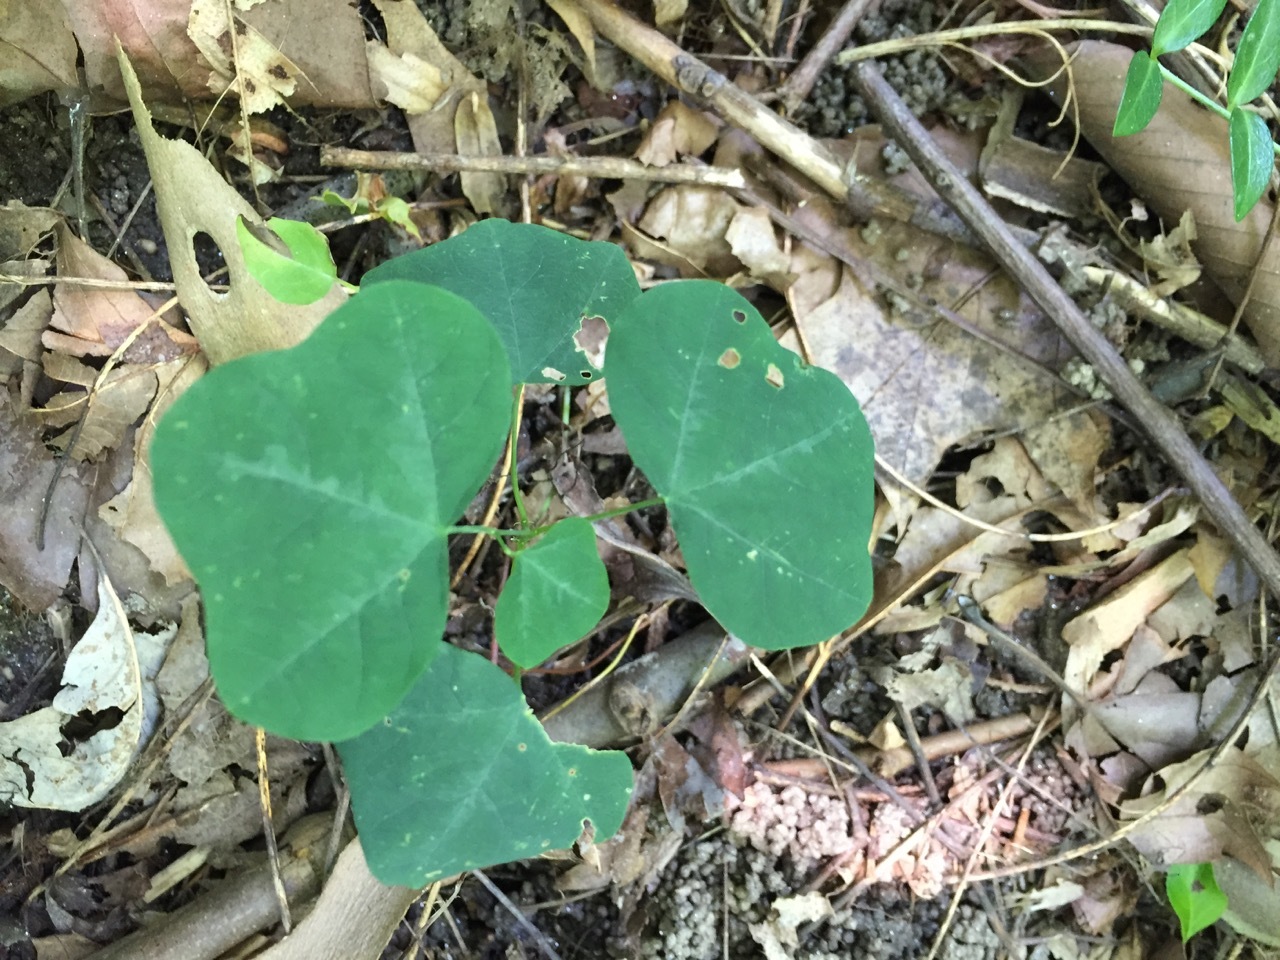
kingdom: Plantae
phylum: Tracheophyta
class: Magnoliopsida
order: Malpighiales
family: Passifloraceae
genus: Passiflora
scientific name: Passiflora lutea
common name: Yellow passionflower
